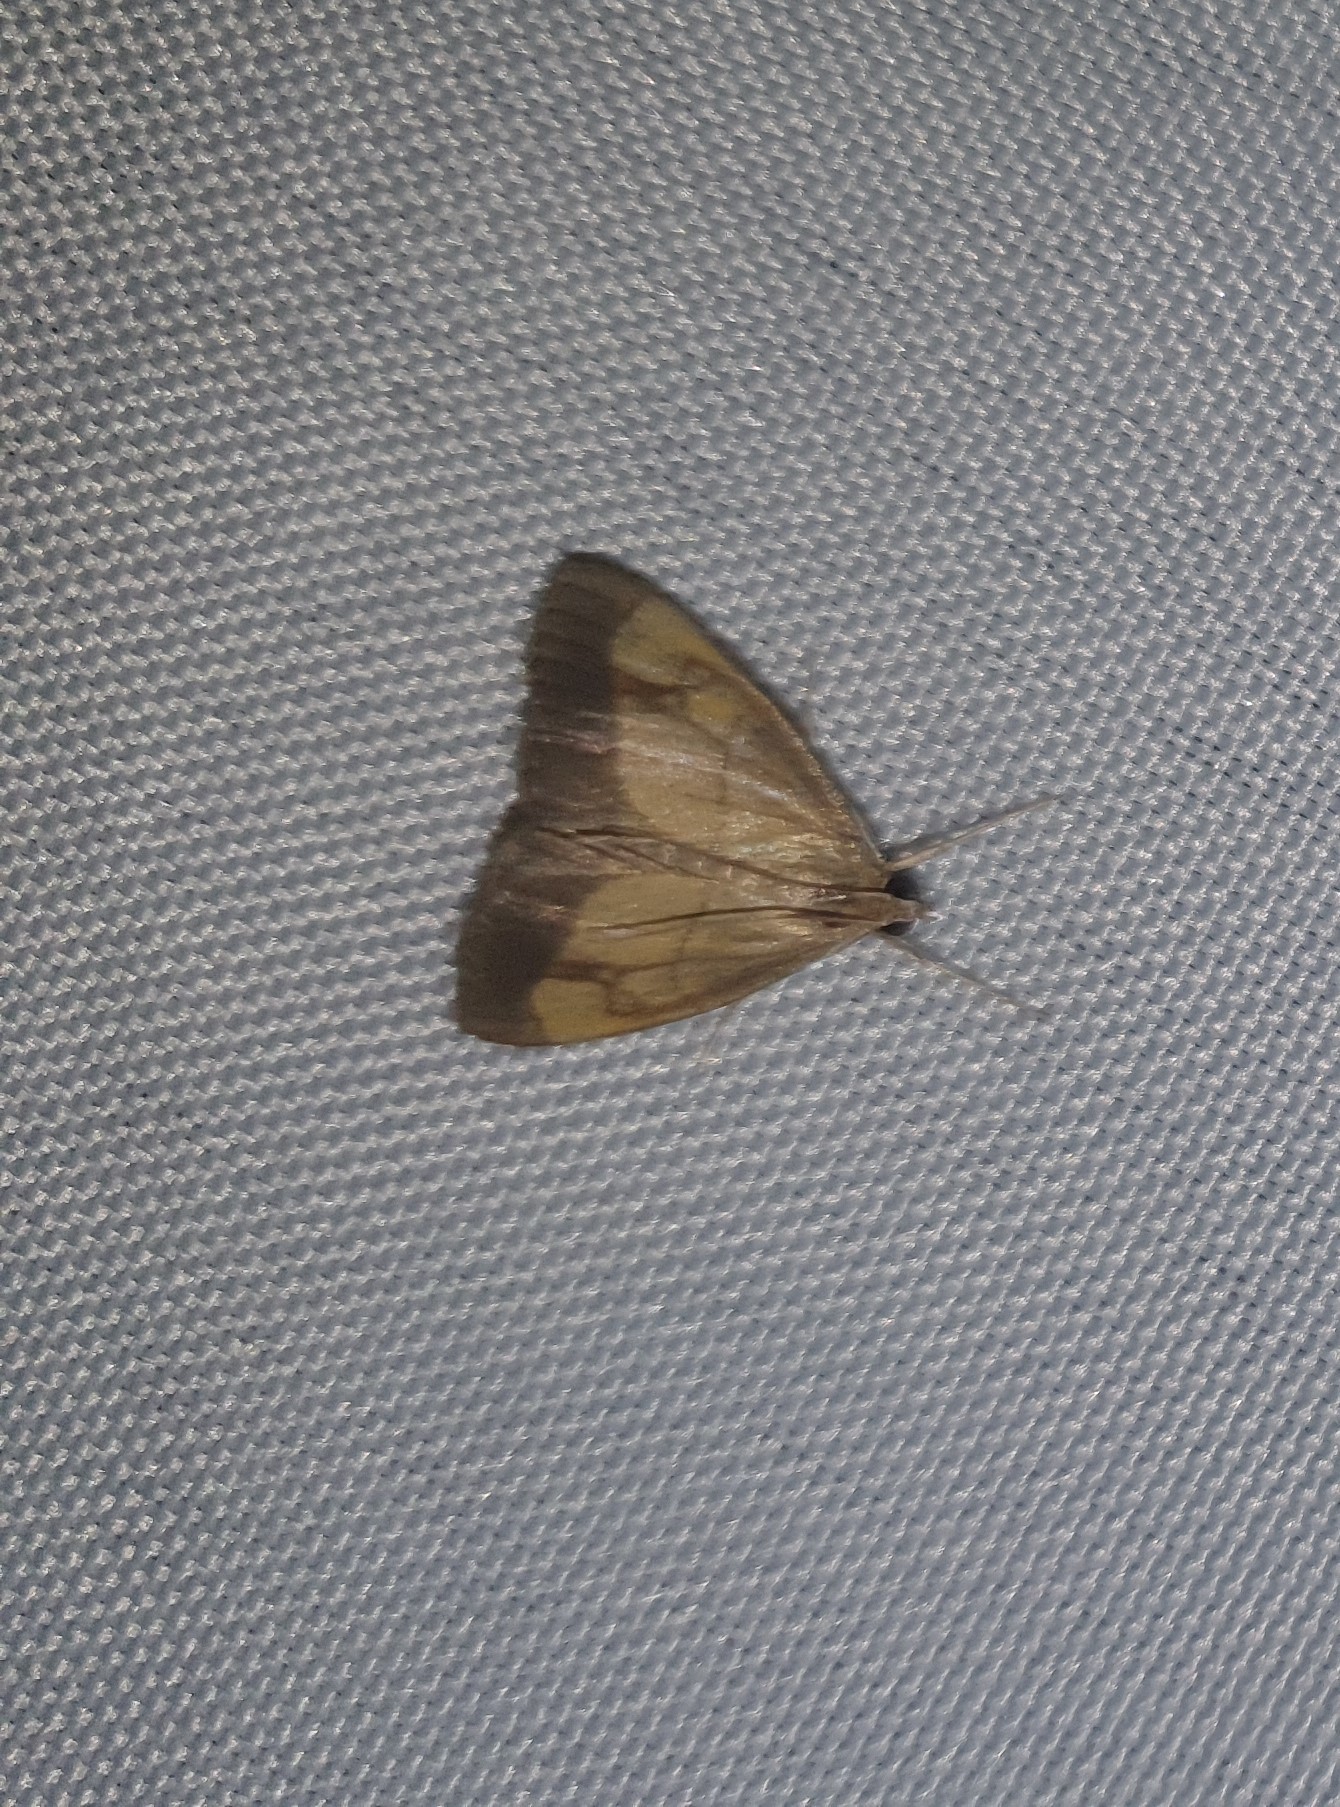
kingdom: Animalia
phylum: Arthropoda
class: Insecta
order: Lepidoptera
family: Crambidae
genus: Evergestis
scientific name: Evergestis limbata
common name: Dark bordered pearl
